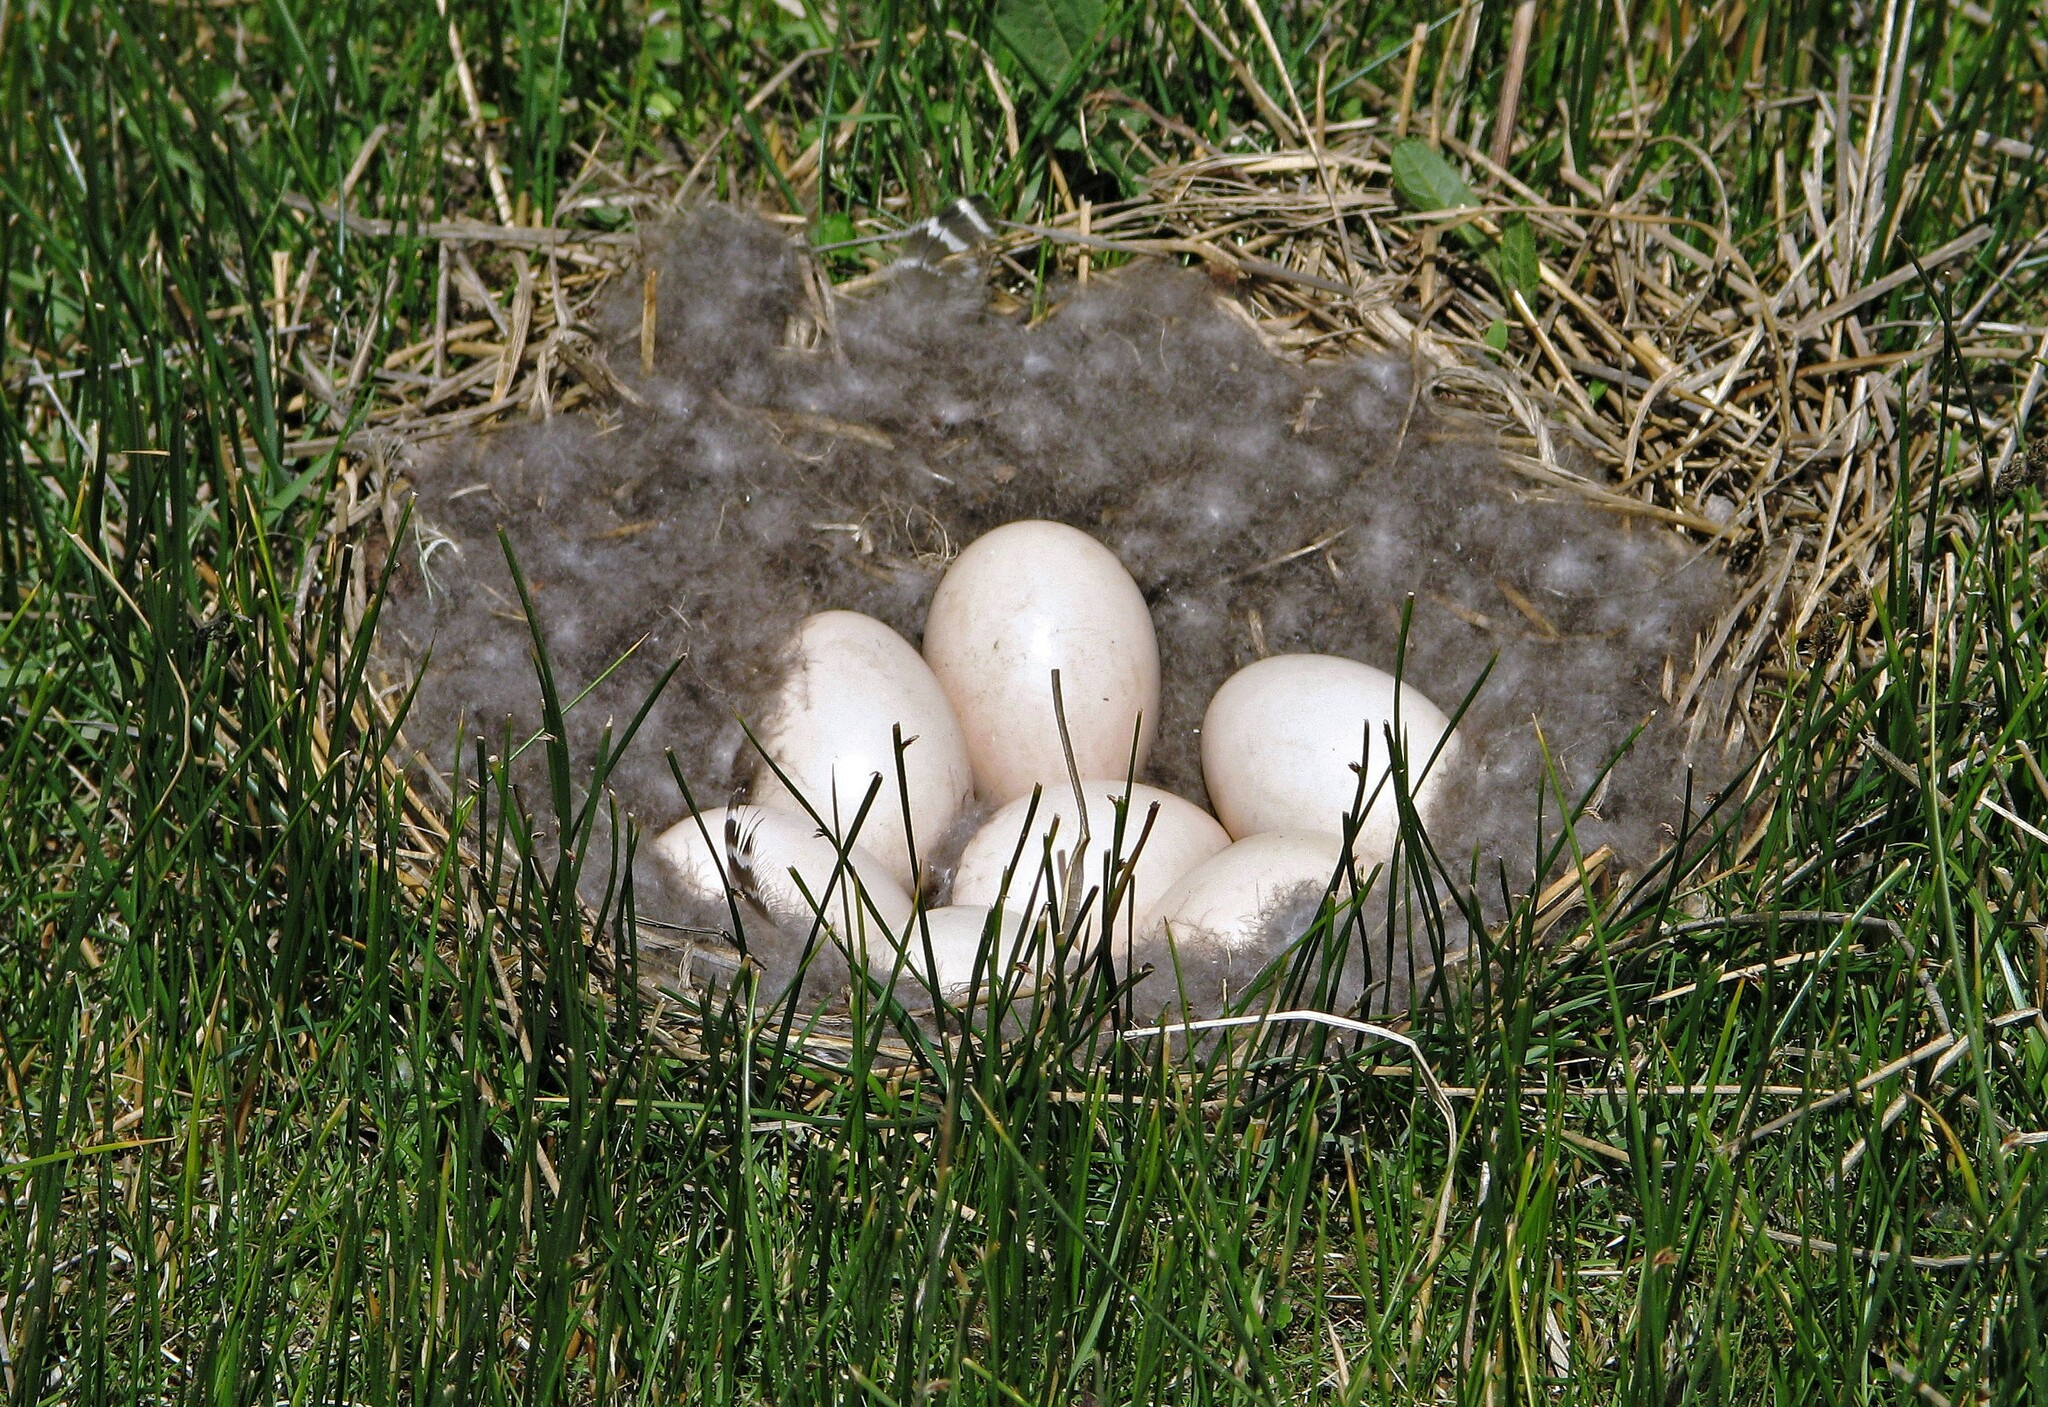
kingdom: Animalia
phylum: Chordata
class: Aves
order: Anseriformes
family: Anatidae
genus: Chloephaga
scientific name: Chloephaga picta
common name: Upland goose
